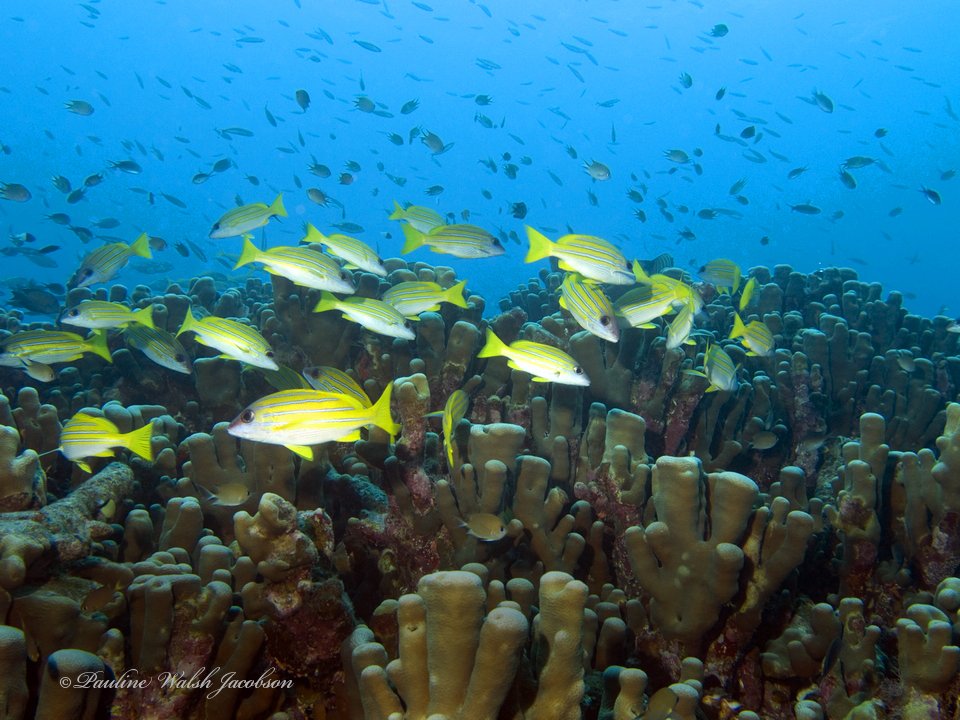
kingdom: Animalia
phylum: Chordata
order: Perciformes
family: Lutjanidae
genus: Lutjanus
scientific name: Lutjanus kasmira
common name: Common bluestripe snapper
